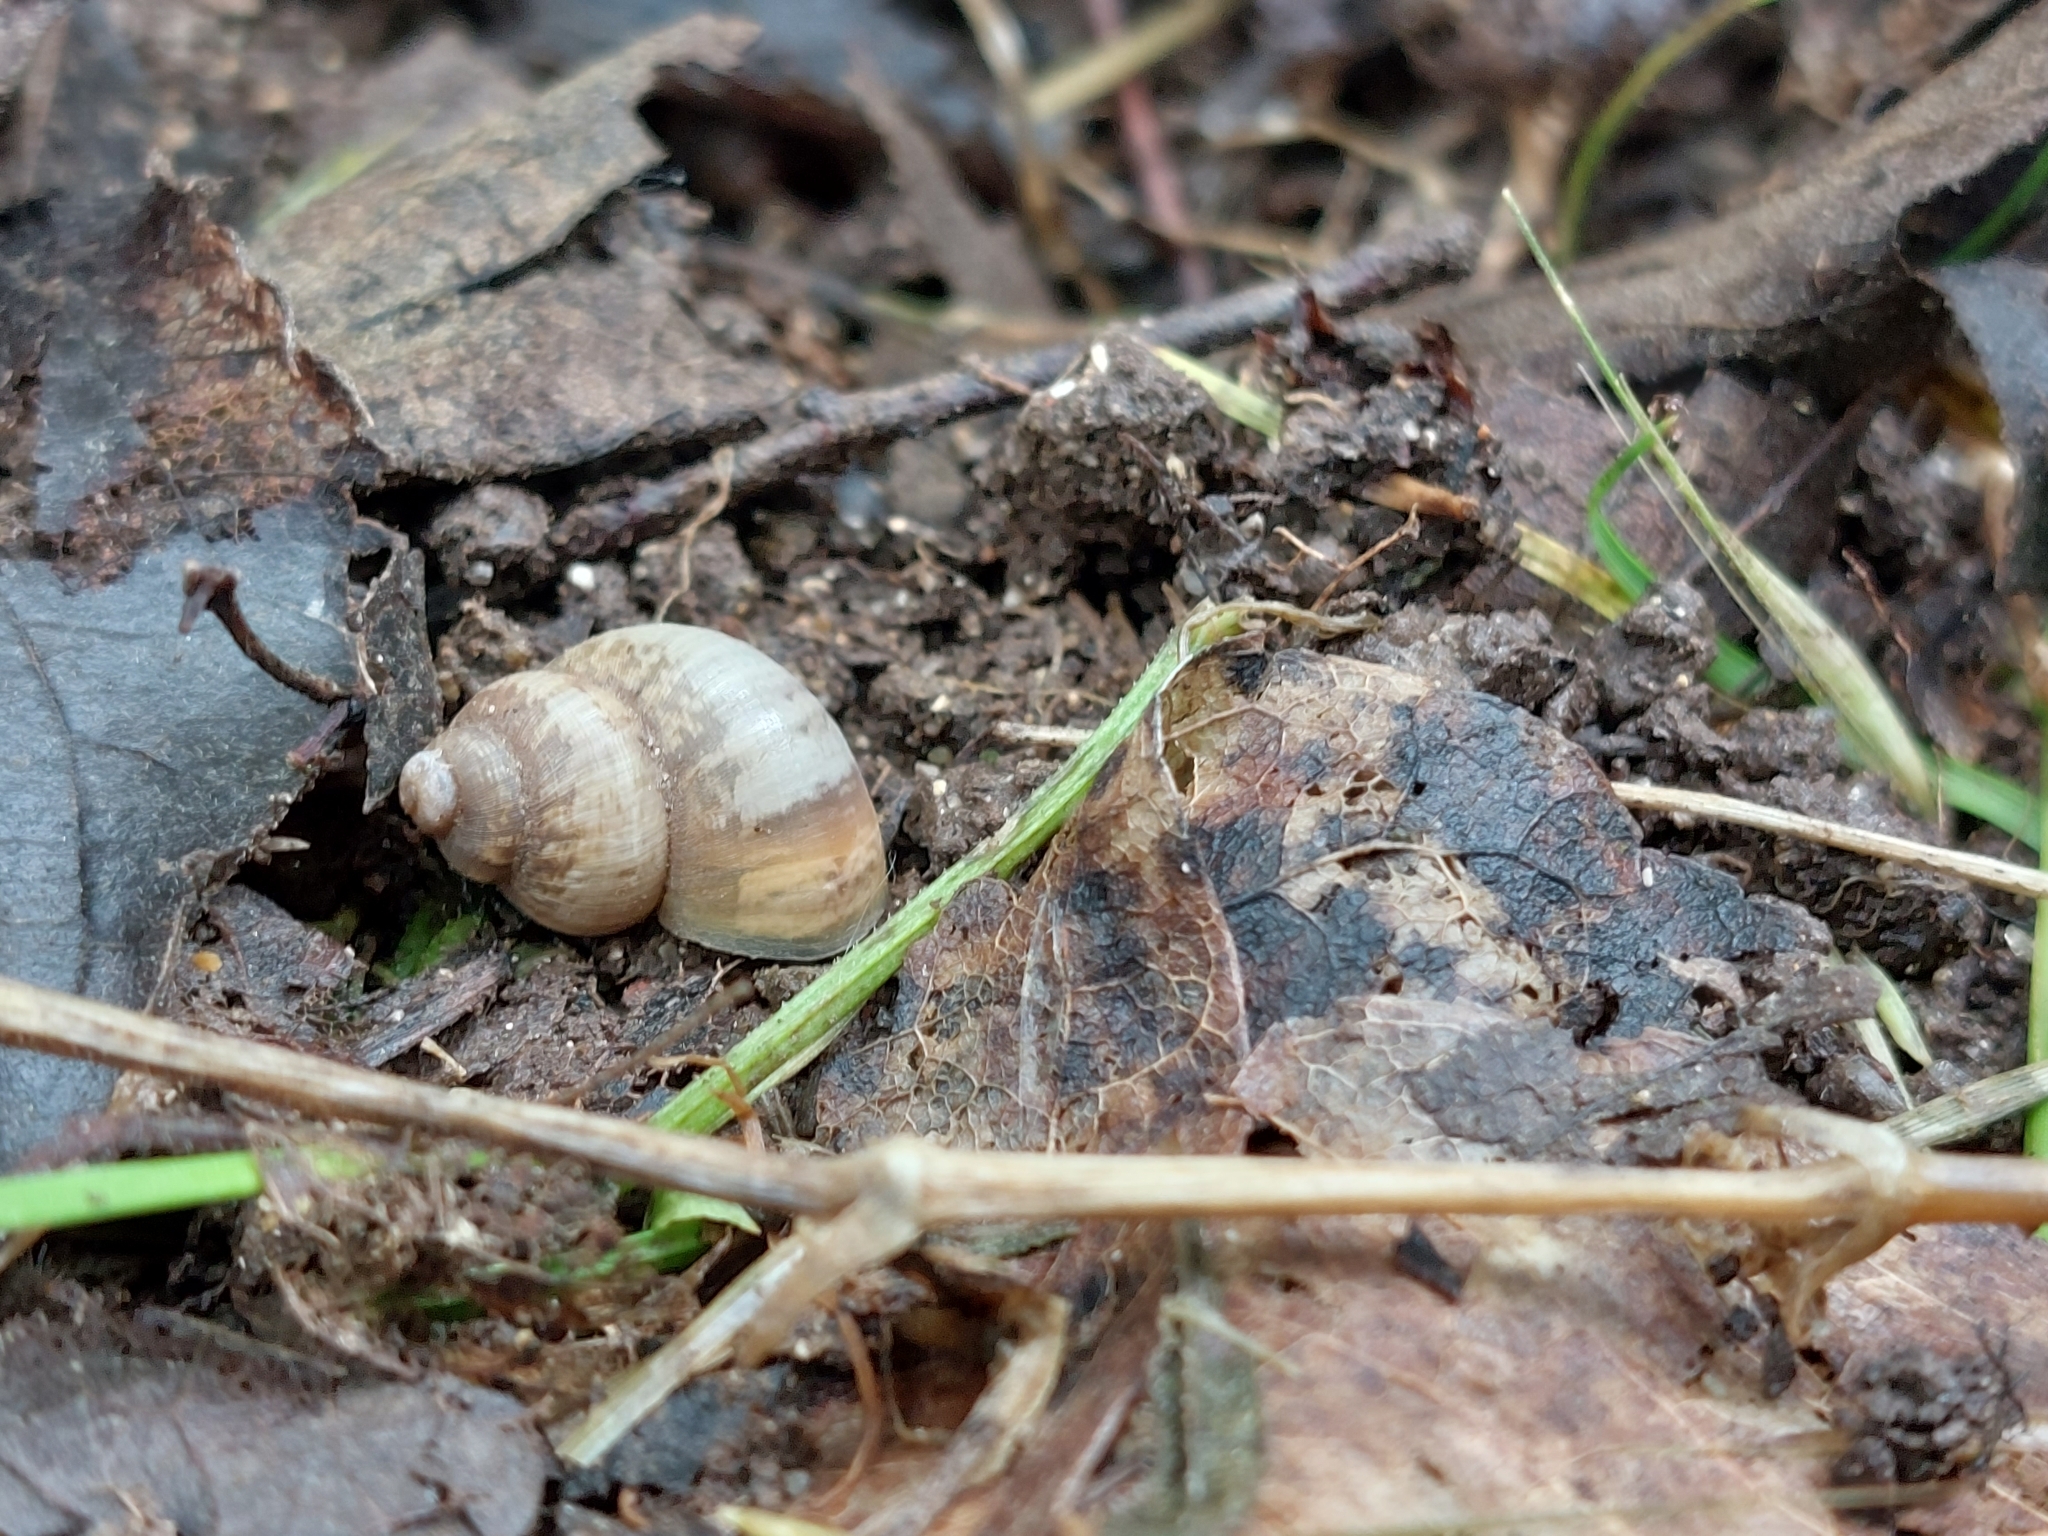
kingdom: Animalia
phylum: Mollusca
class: Gastropoda
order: Littorinimorpha
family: Pomatiidae
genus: Pomatias
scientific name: Pomatias elegans
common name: Red-mouthed snail
